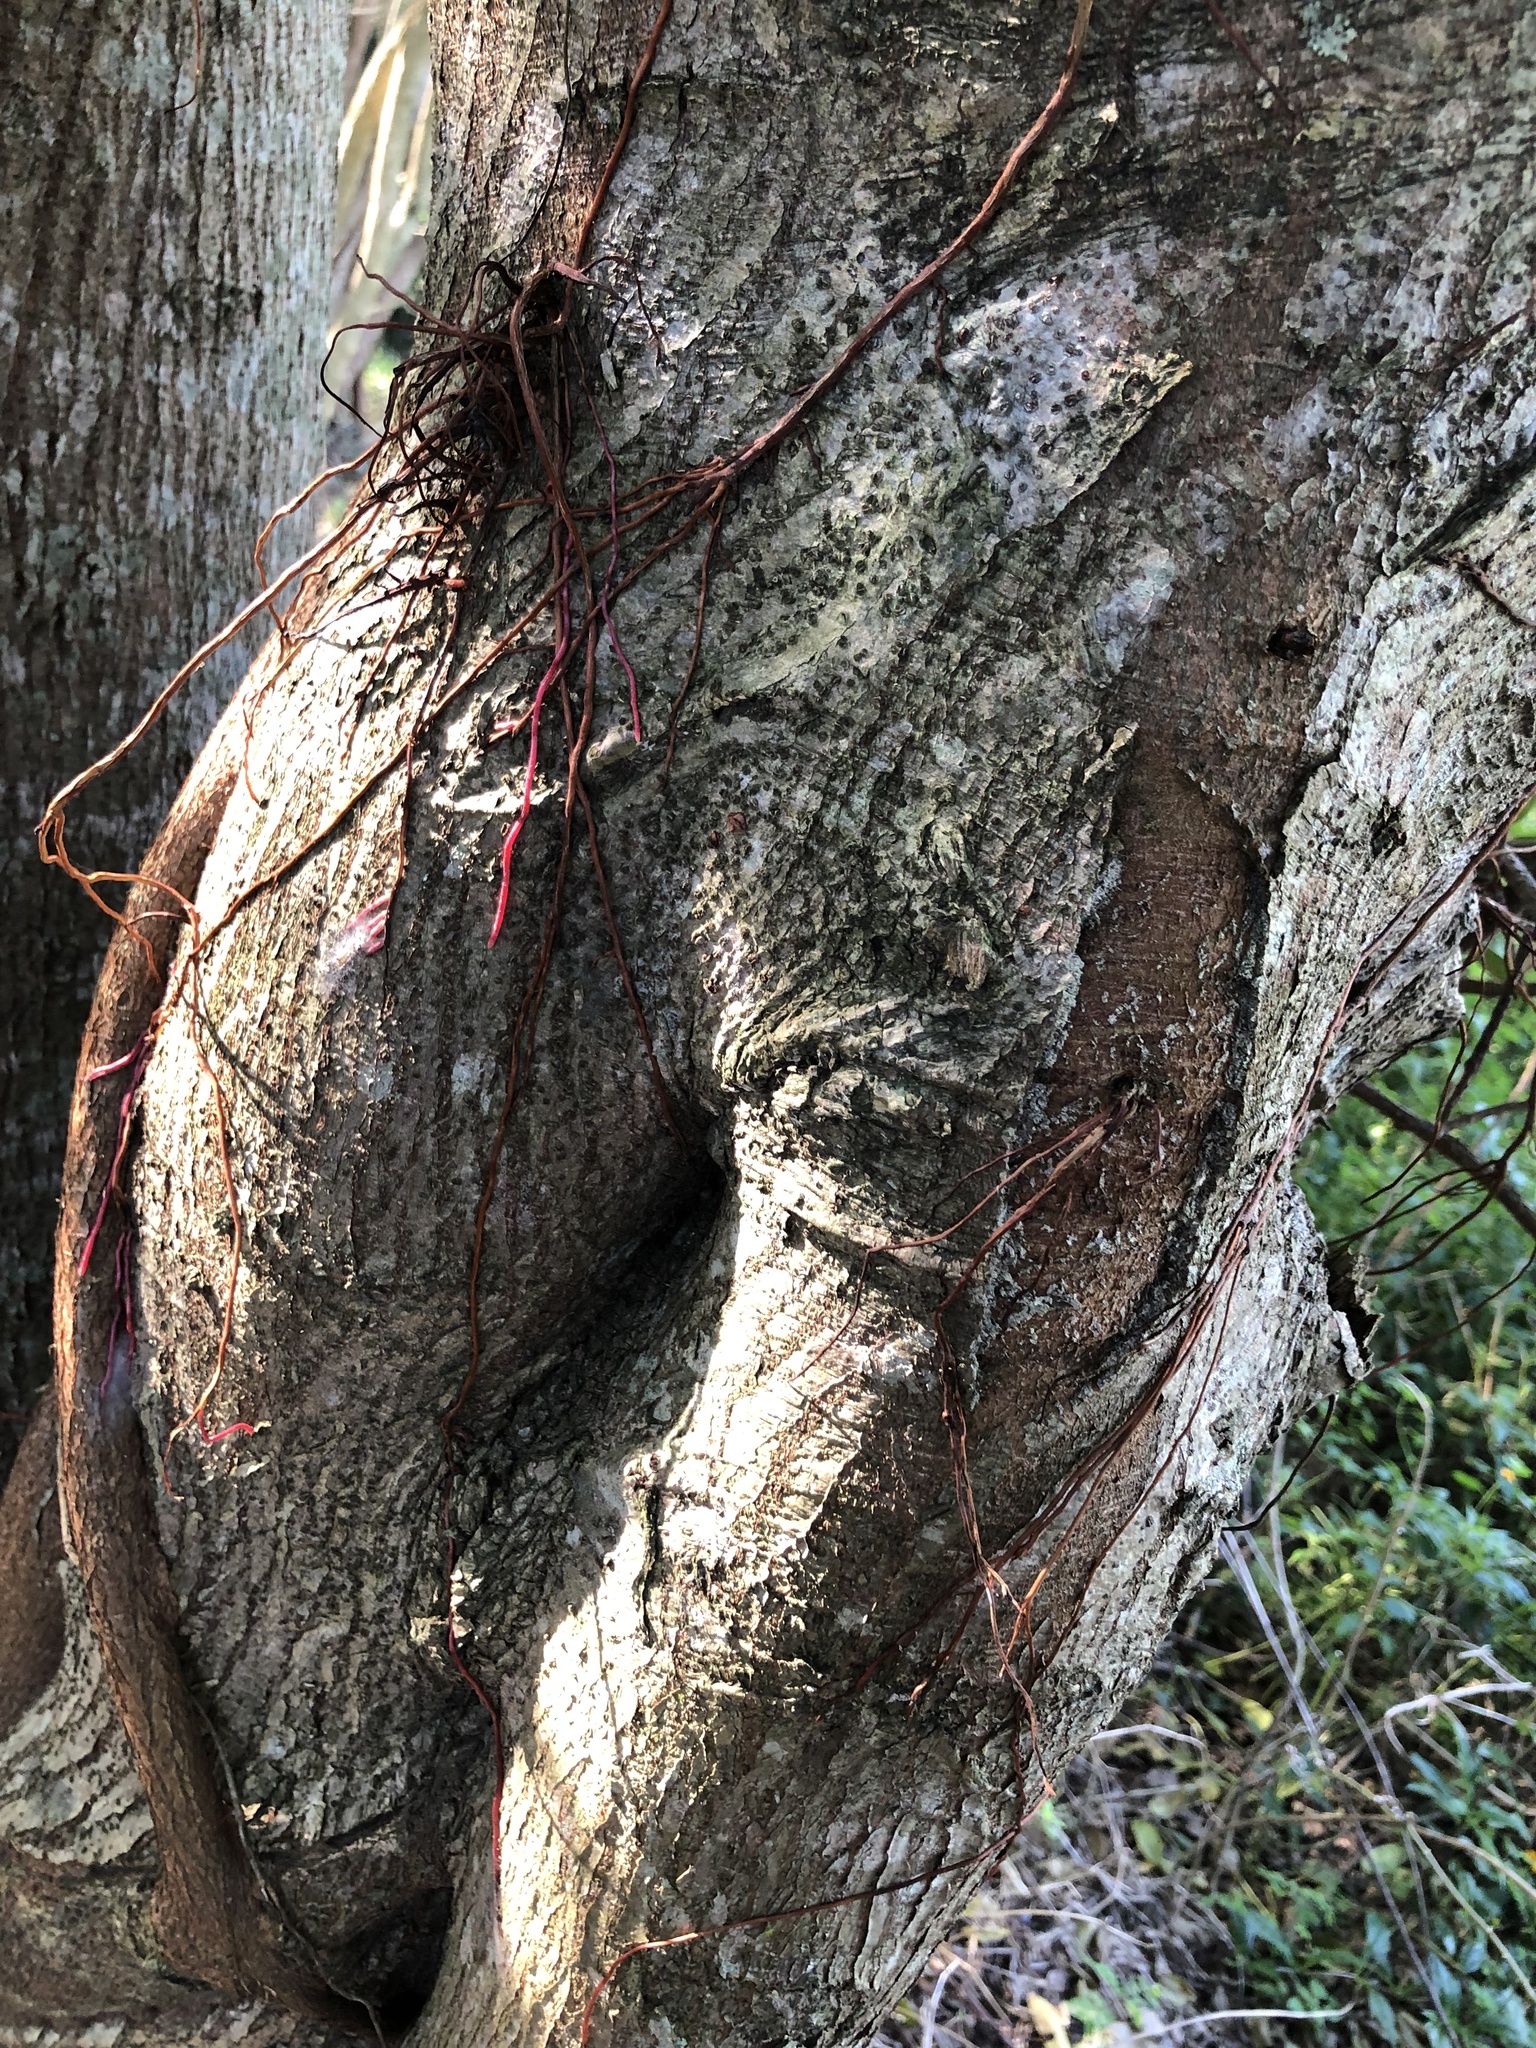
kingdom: Plantae
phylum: Tracheophyta
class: Magnoliopsida
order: Rosales
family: Moraceae
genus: Ficus
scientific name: Ficus thonningii
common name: Fig
